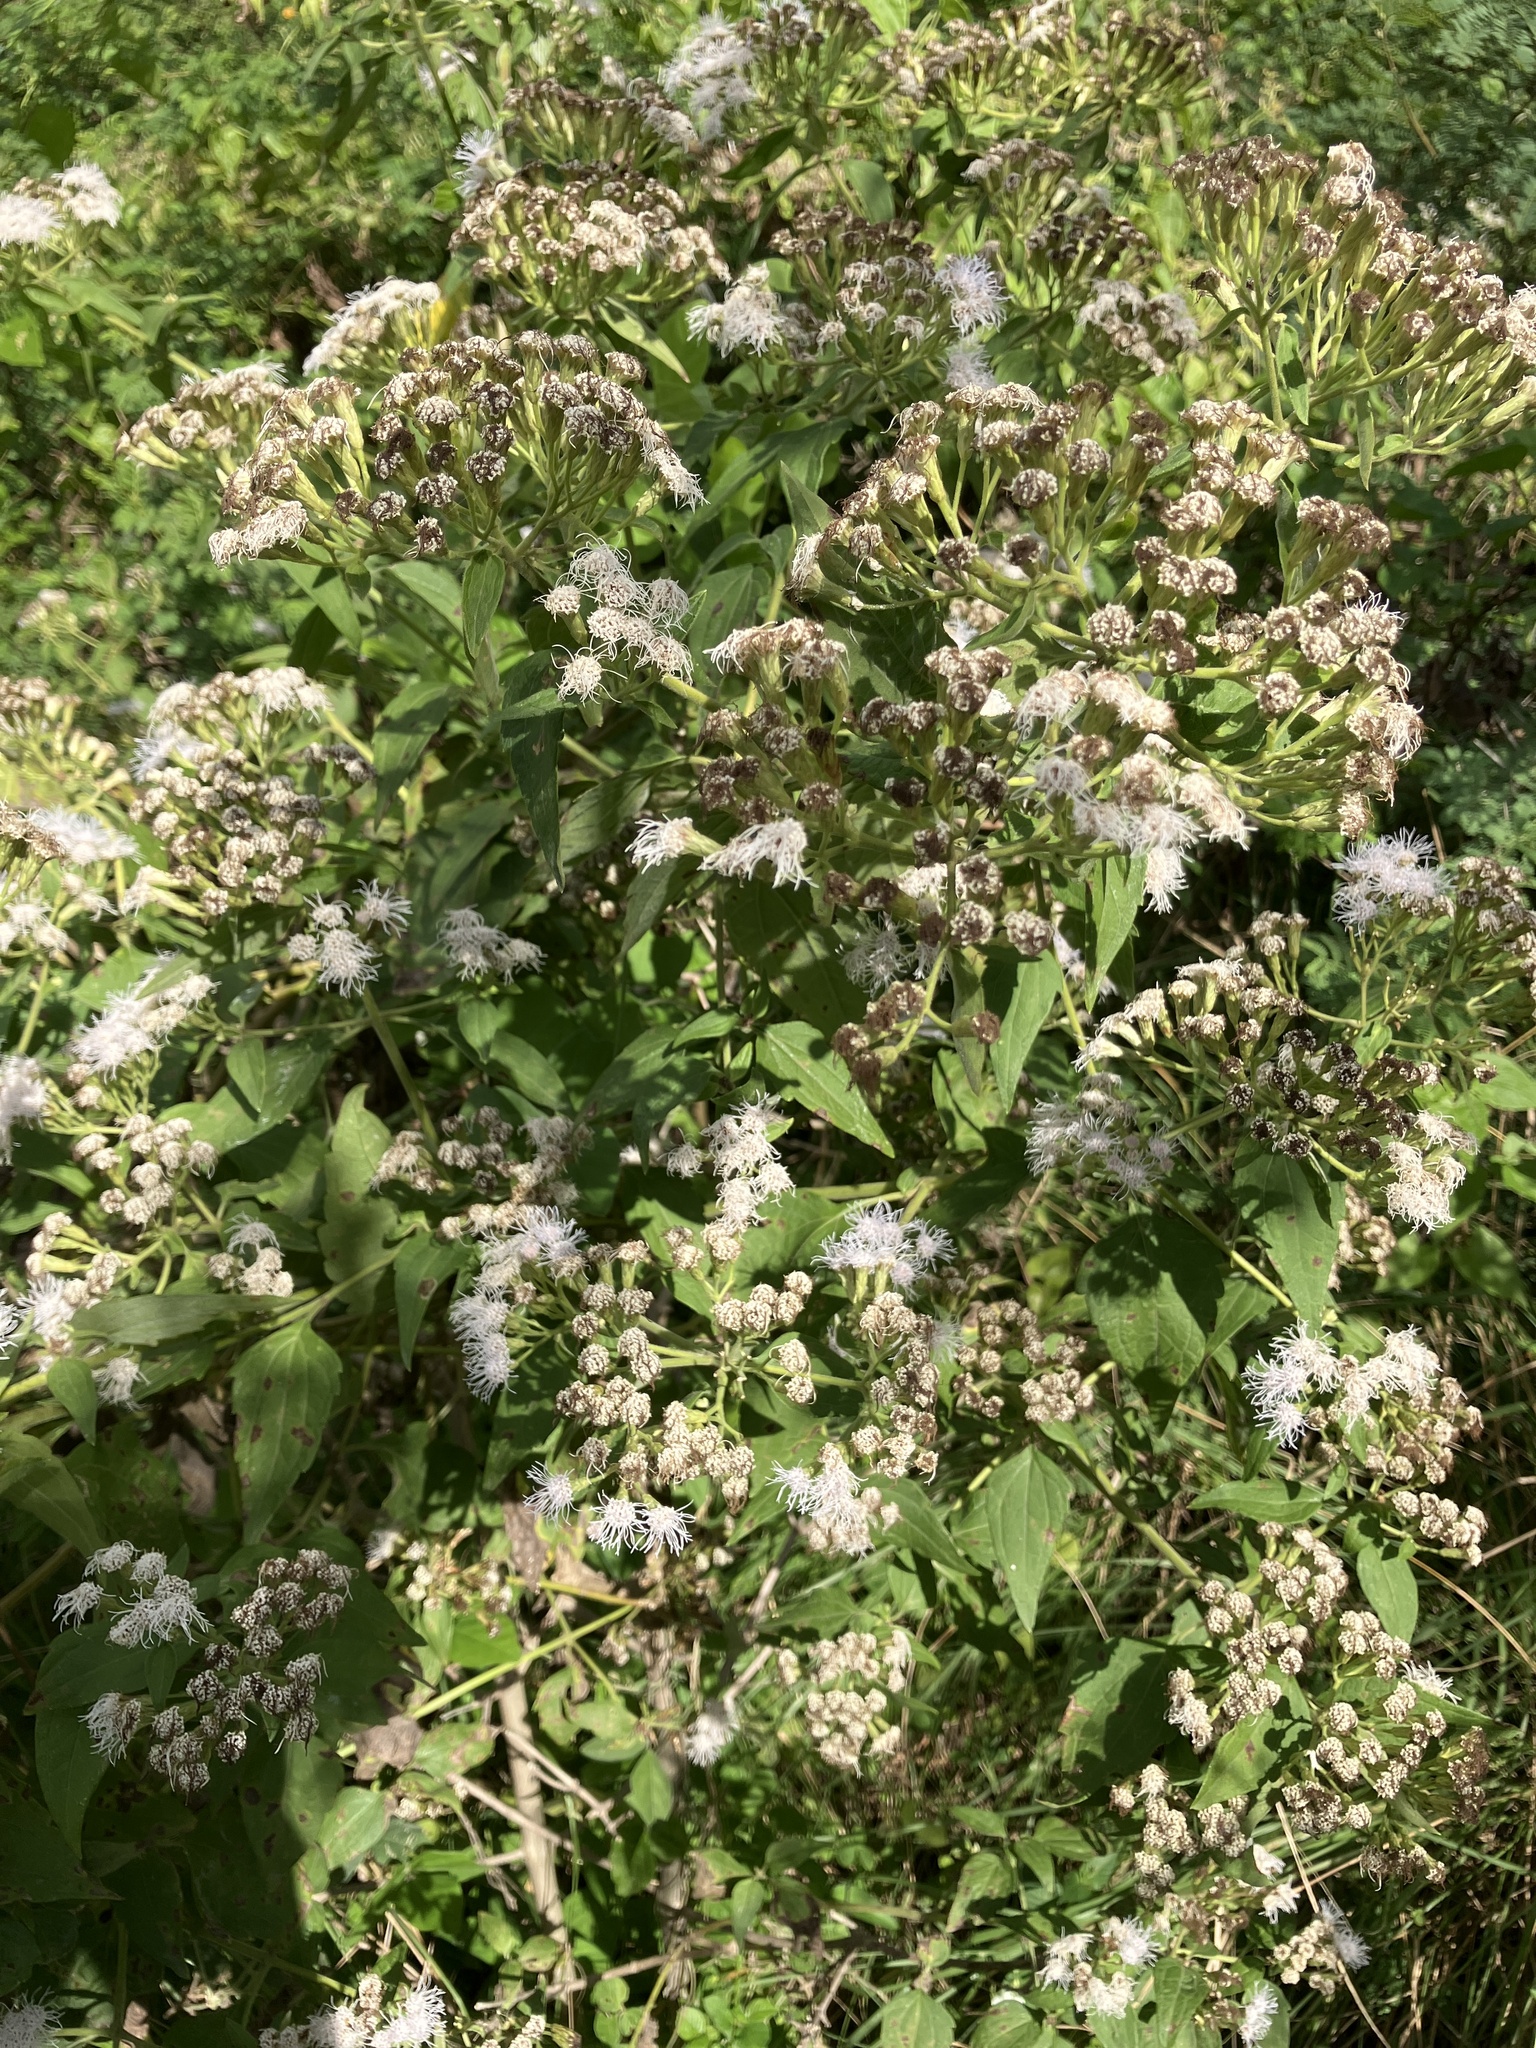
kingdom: Plantae
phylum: Tracheophyta
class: Magnoliopsida
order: Asterales
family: Asteraceae
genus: Chromolaena
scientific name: Chromolaena odorata
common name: Siamweed
